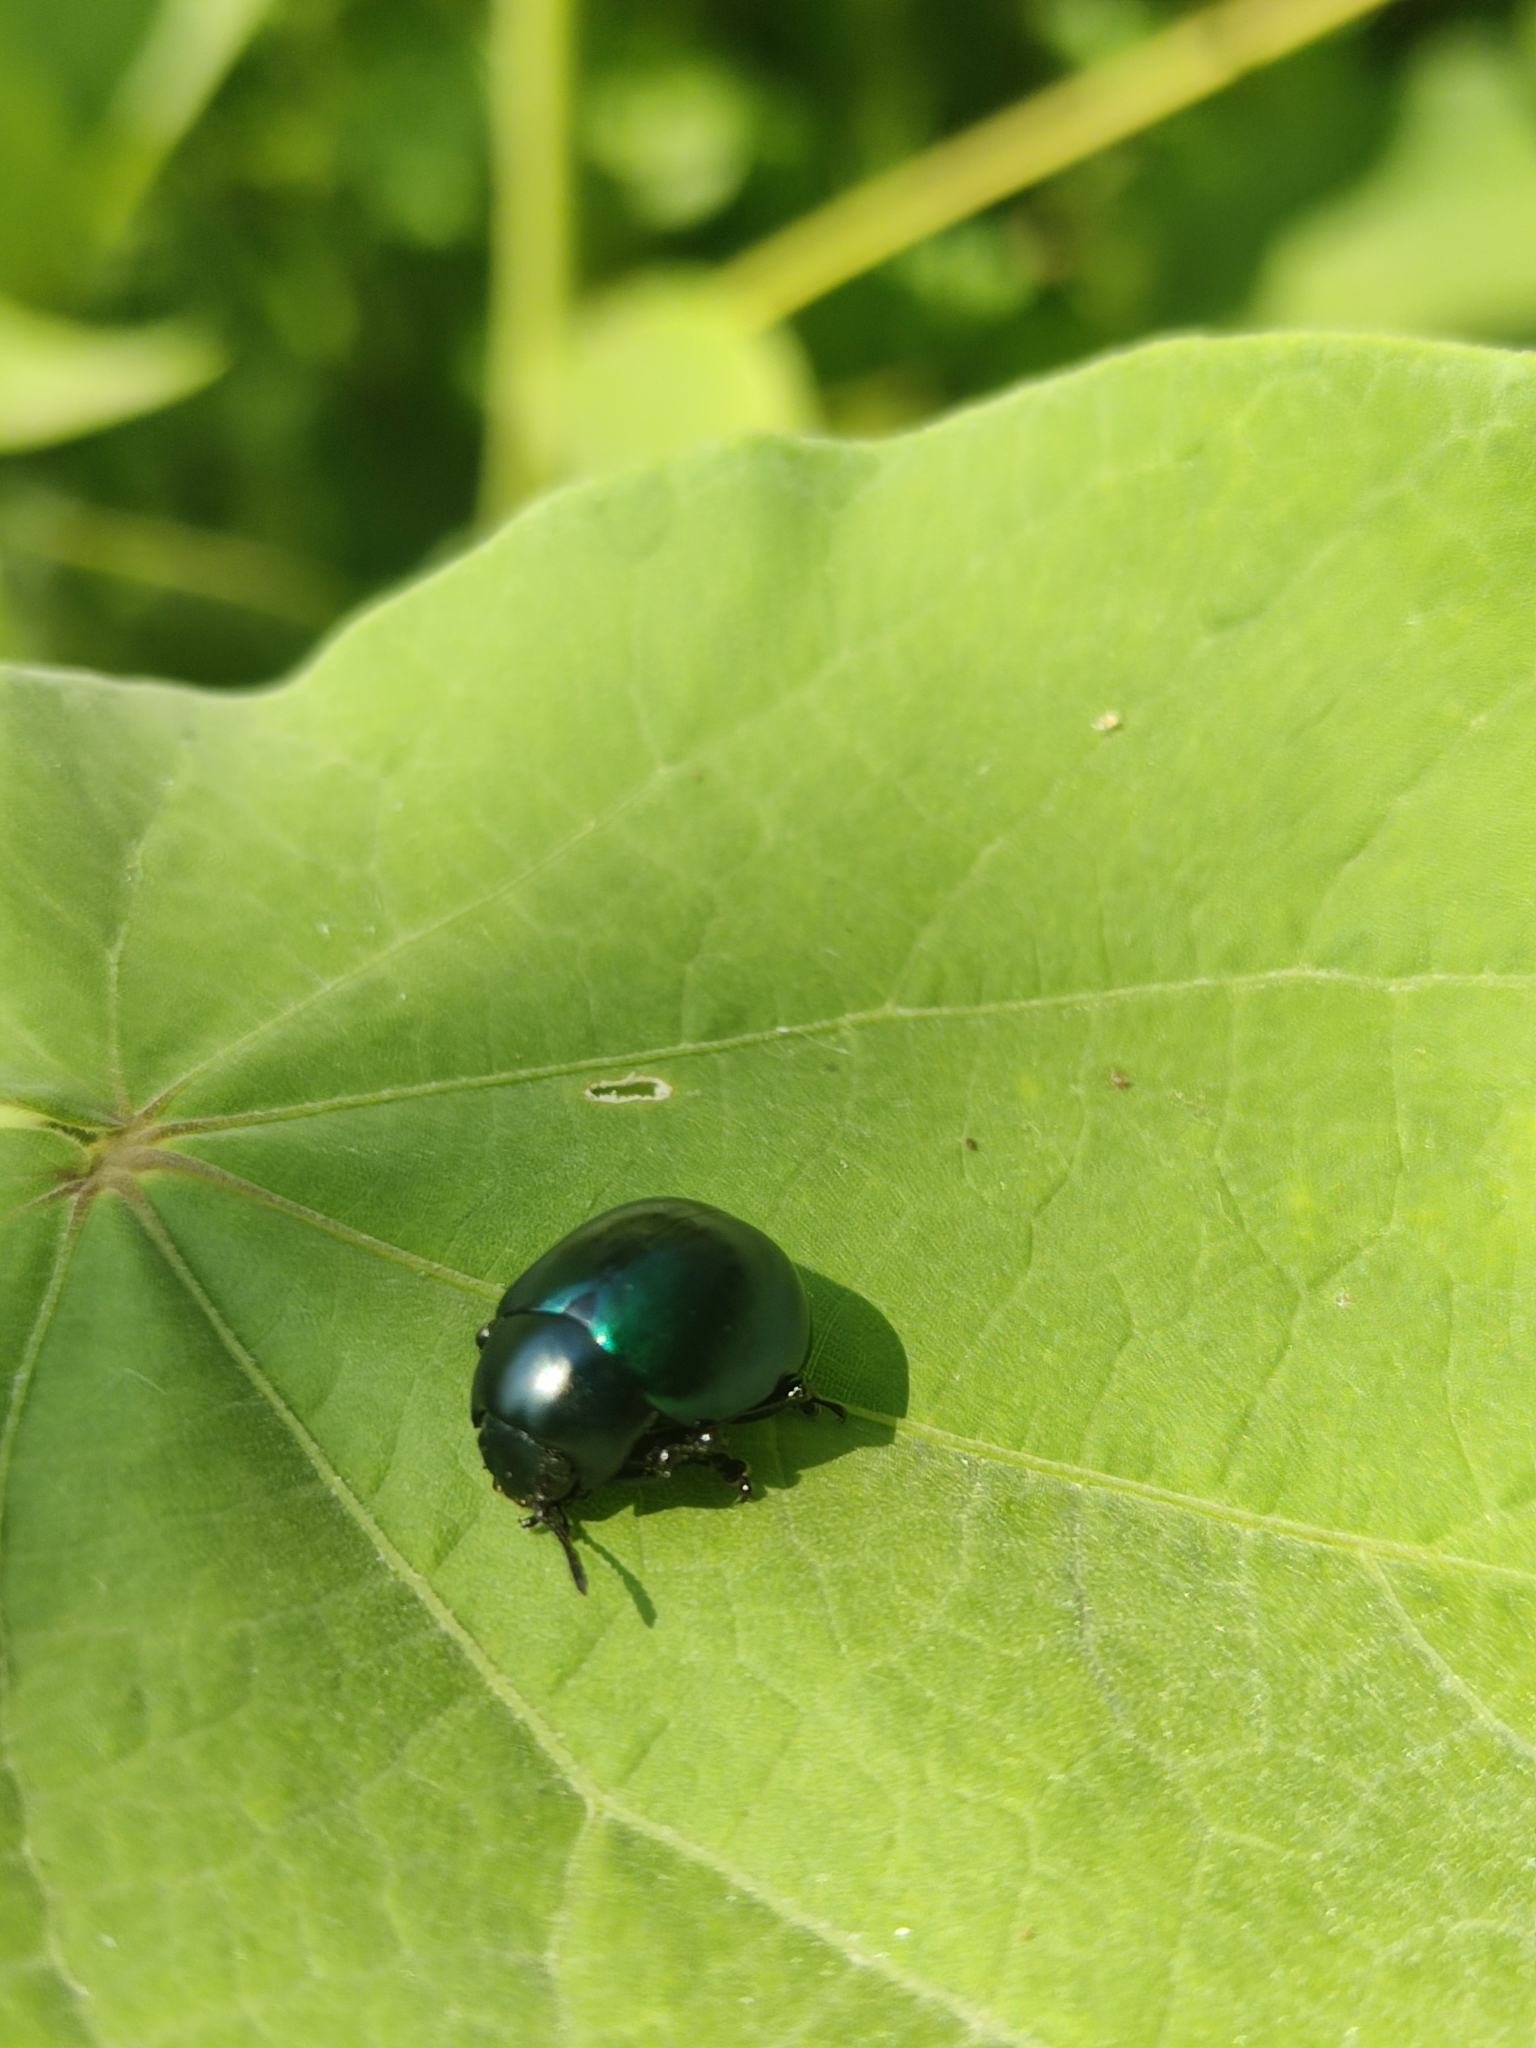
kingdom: Animalia
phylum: Arthropoda
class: Insecta
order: Coleoptera
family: Chrysomelidae
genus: Leptinotarsa
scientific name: Leptinotarsa haldemani
